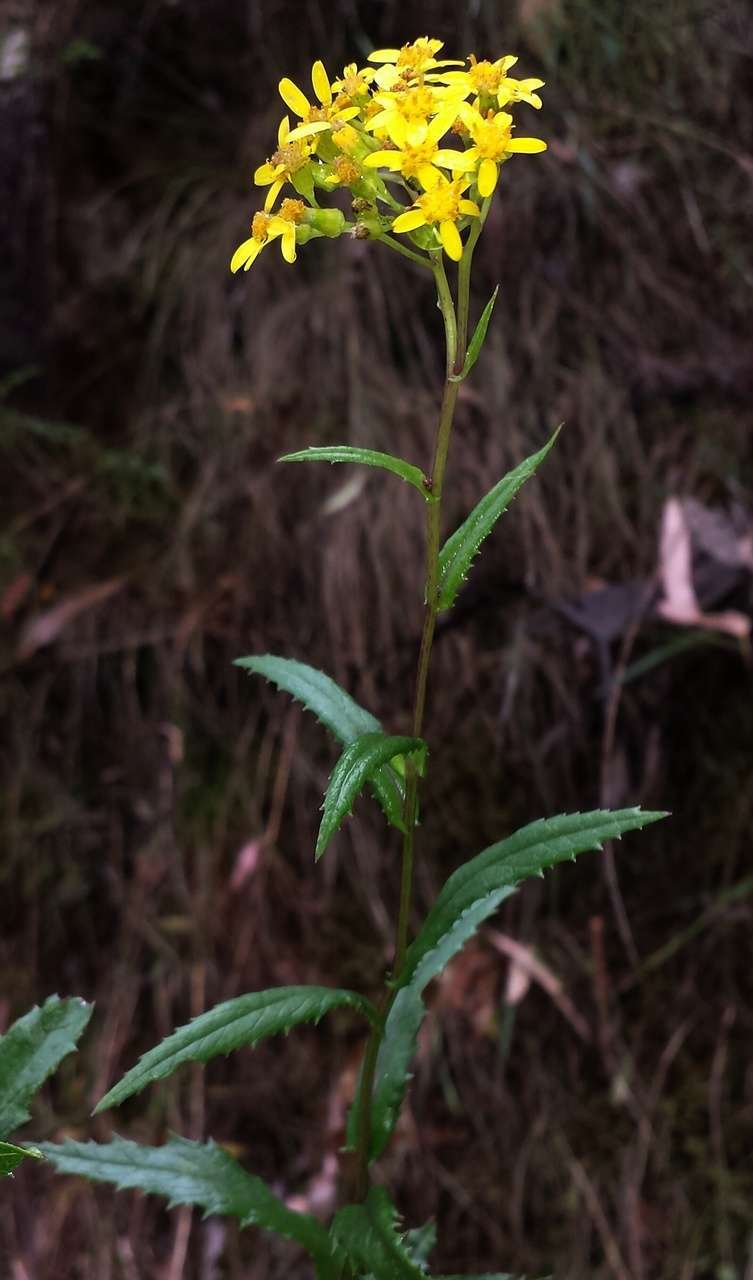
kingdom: Plantae
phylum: Tracheophyta
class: Magnoliopsida
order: Asterales
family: Asteraceae
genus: Senecio
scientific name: Senecio linearifolius
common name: Fireweed groundsel
